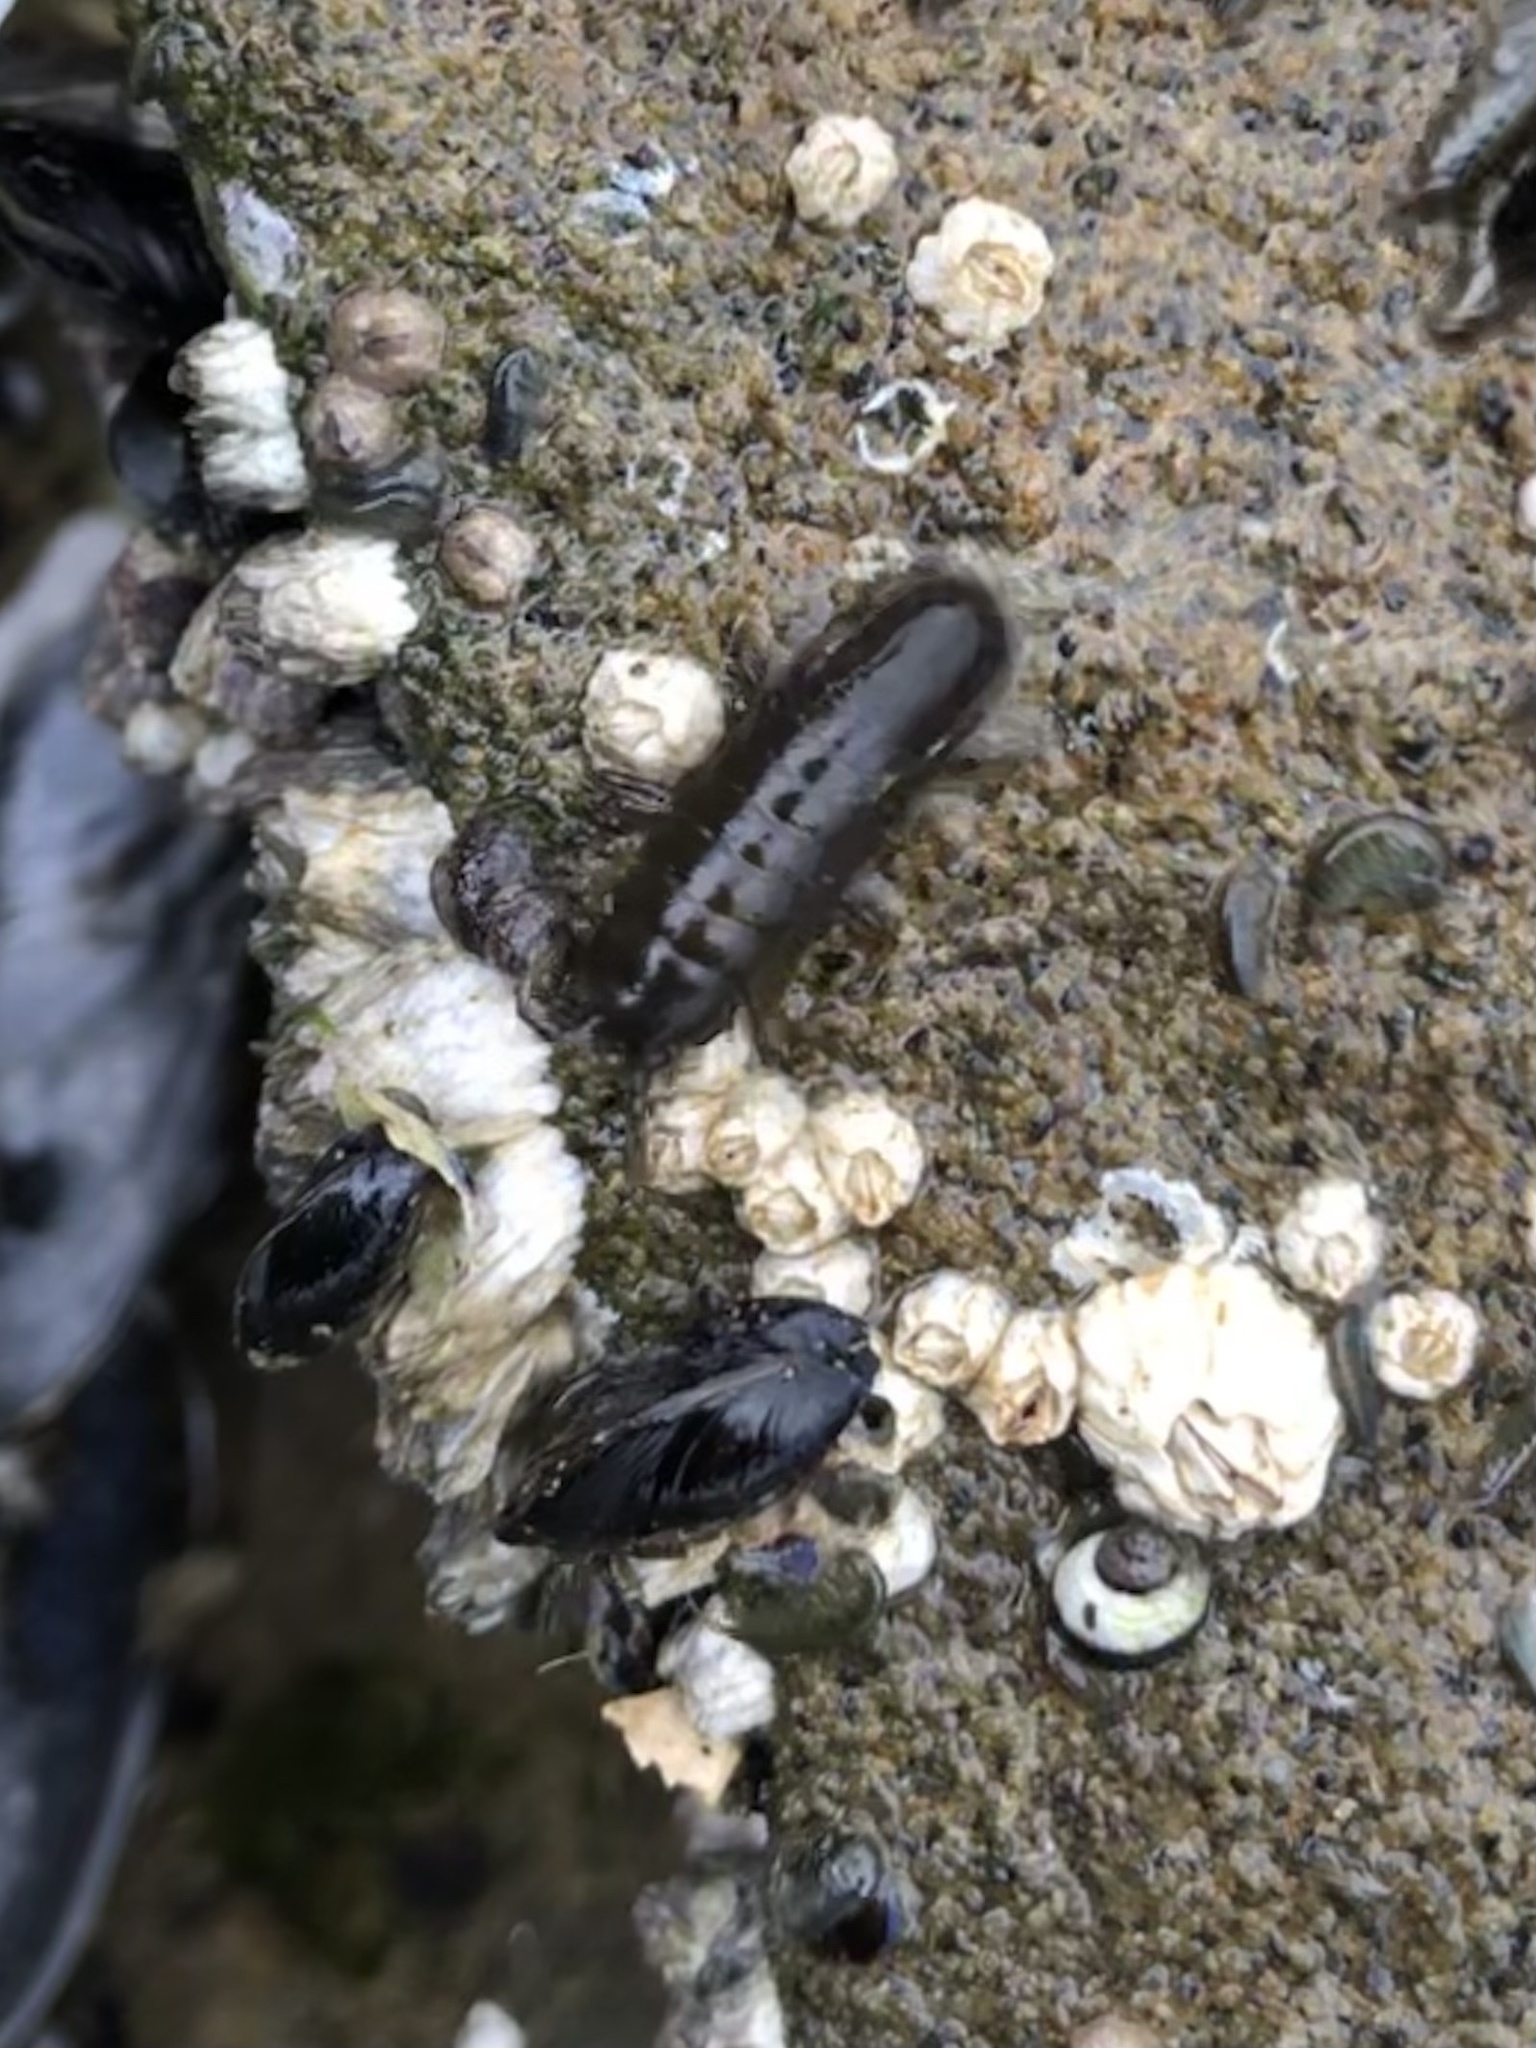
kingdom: Animalia
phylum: Arthropoda
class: Malacostraca
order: Isopoda
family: Idoteidae
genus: Pentidotea
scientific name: Pentidotea wosnesenskii
